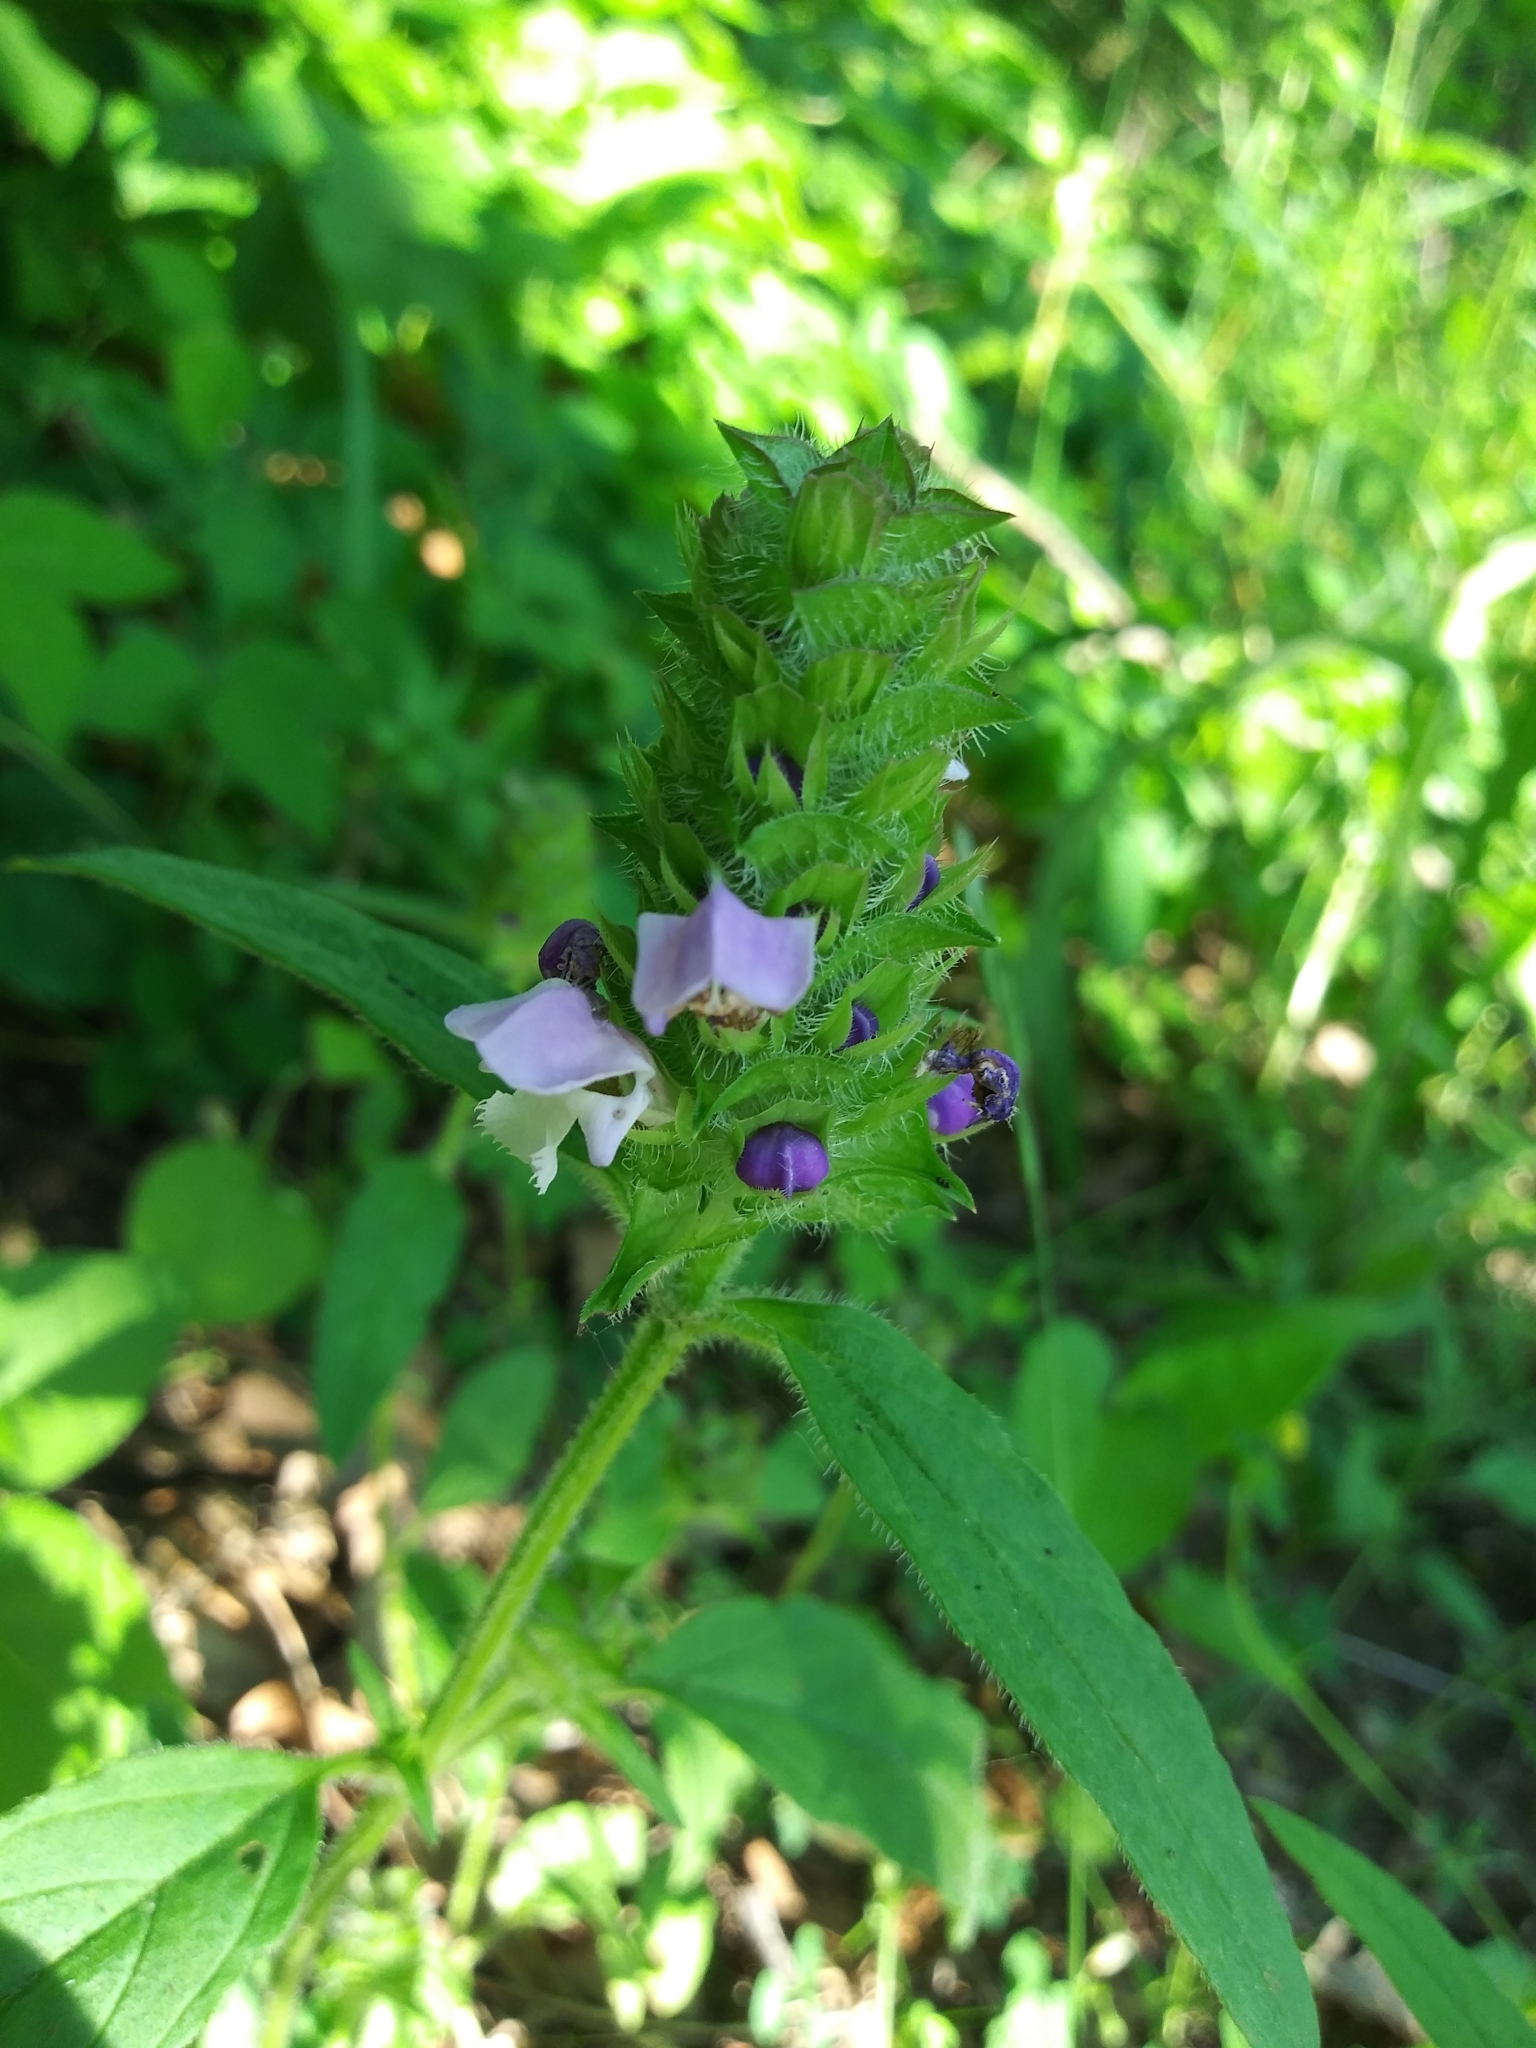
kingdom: Plantae
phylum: Tracheophyta
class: Magnoliopsida
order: Lamiales
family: Lamiaceae
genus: Prunella
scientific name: Prunella vulgaris
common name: Heal-all
